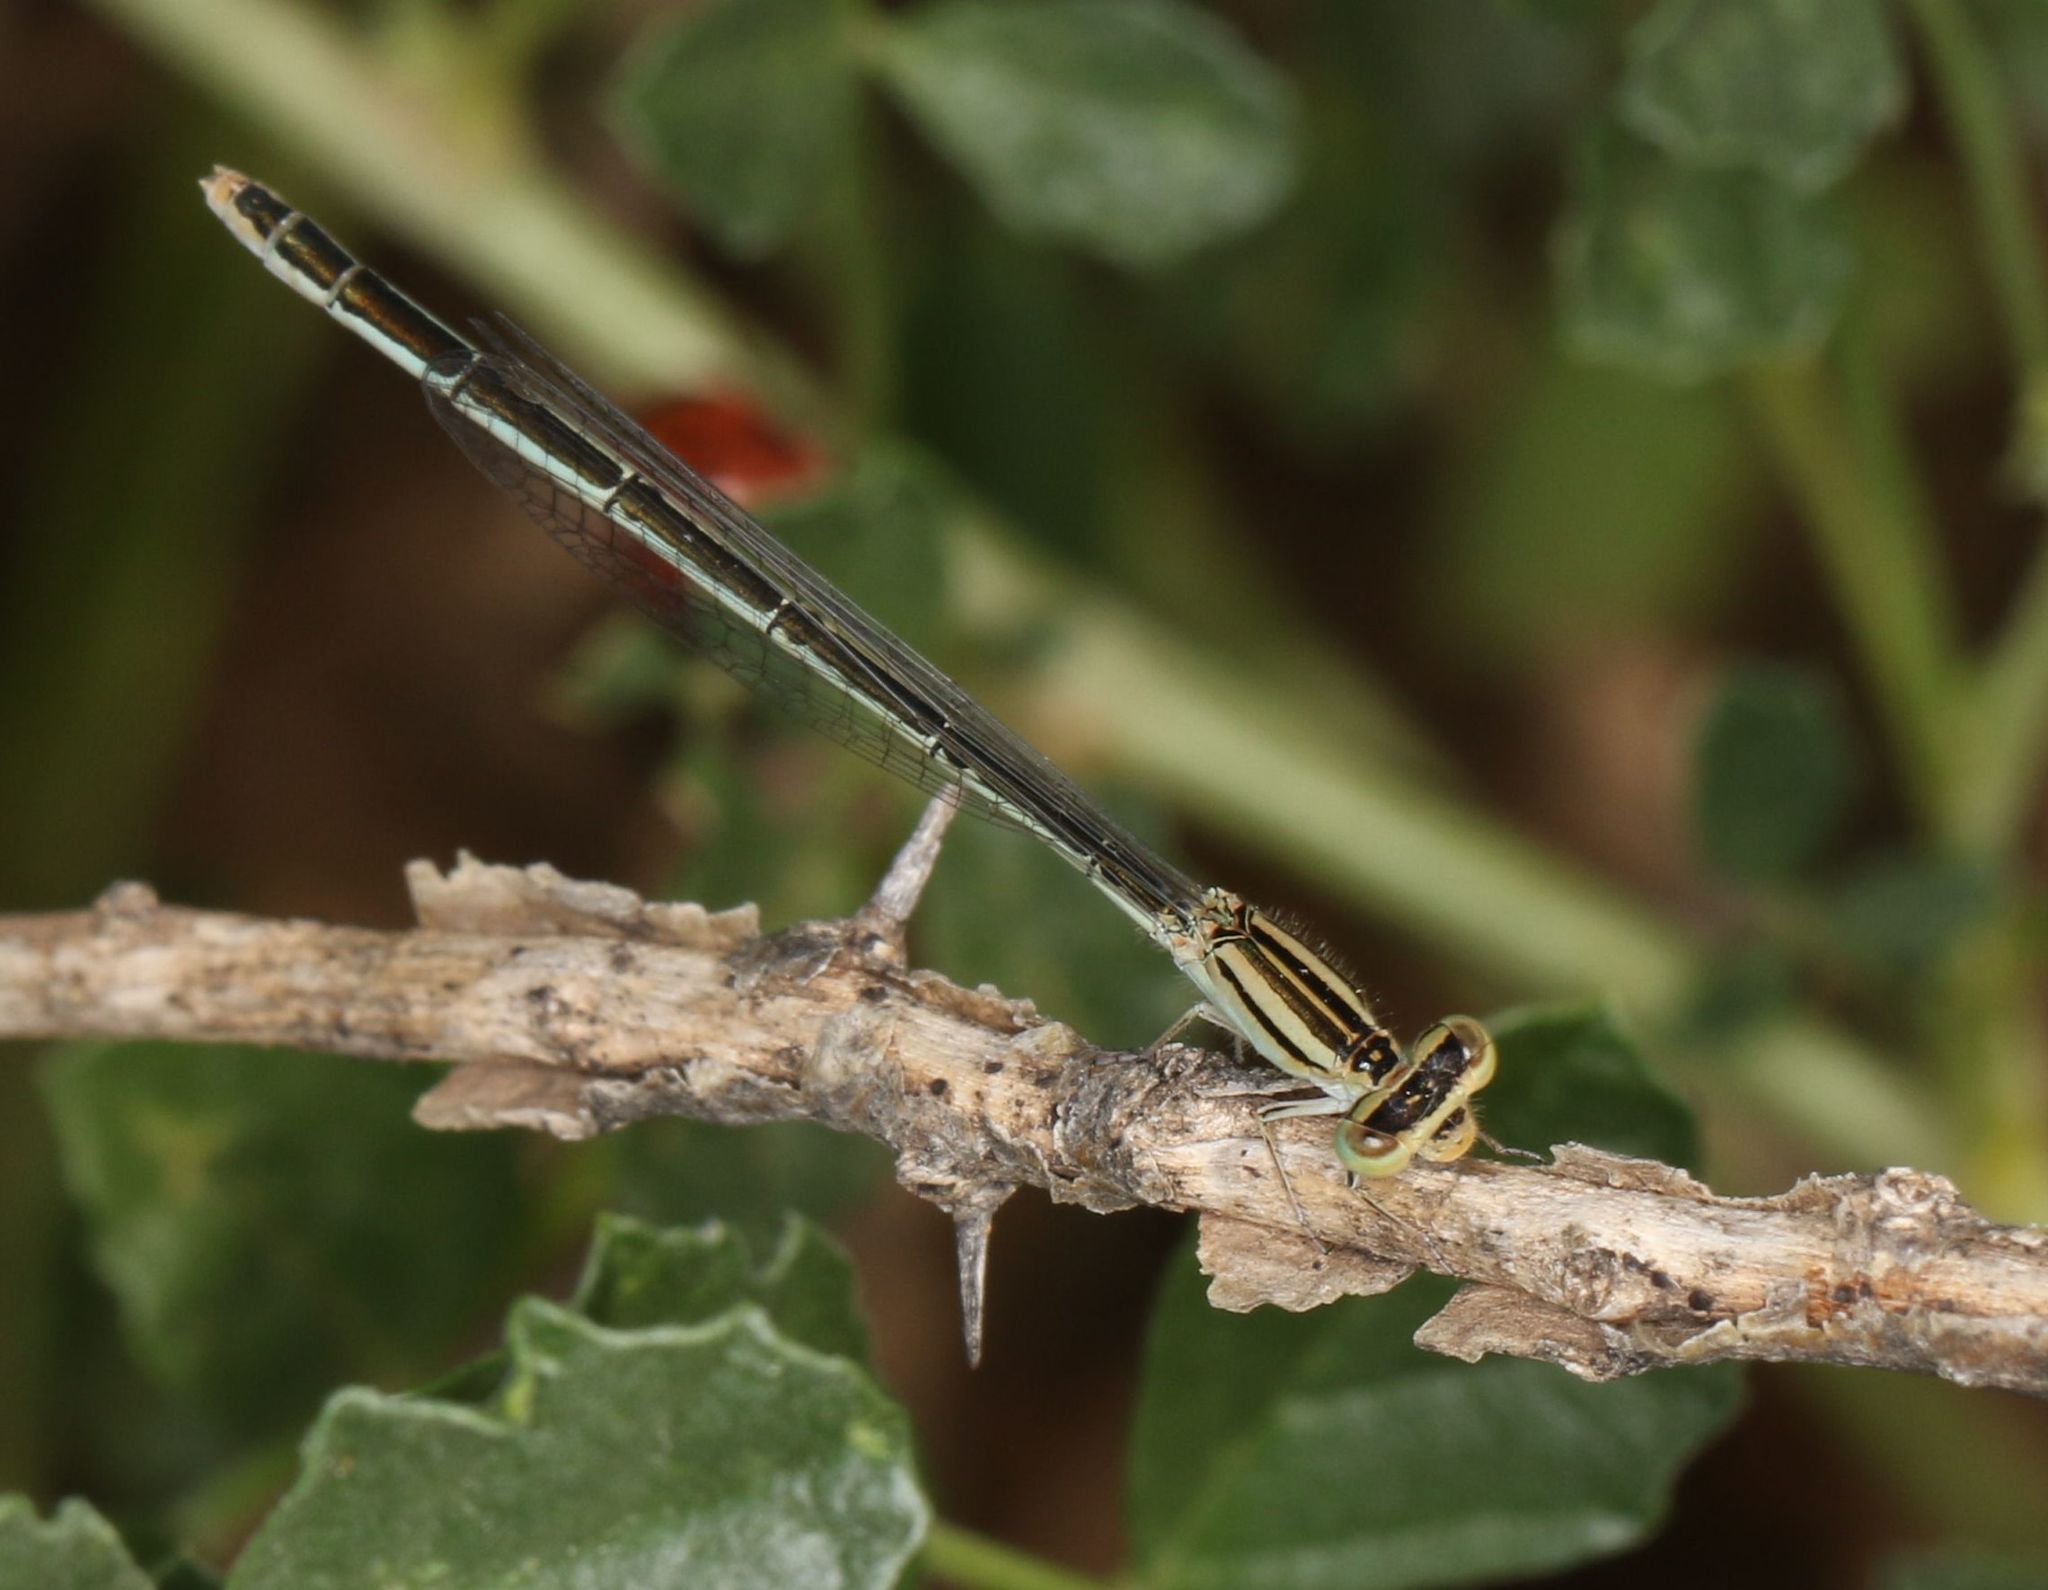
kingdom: Animalia
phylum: Arthropoda
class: Insecta
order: Odonata
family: Coenagrionidae
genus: Africallagma
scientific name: Africallagma glaucum
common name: Swamp bluet
